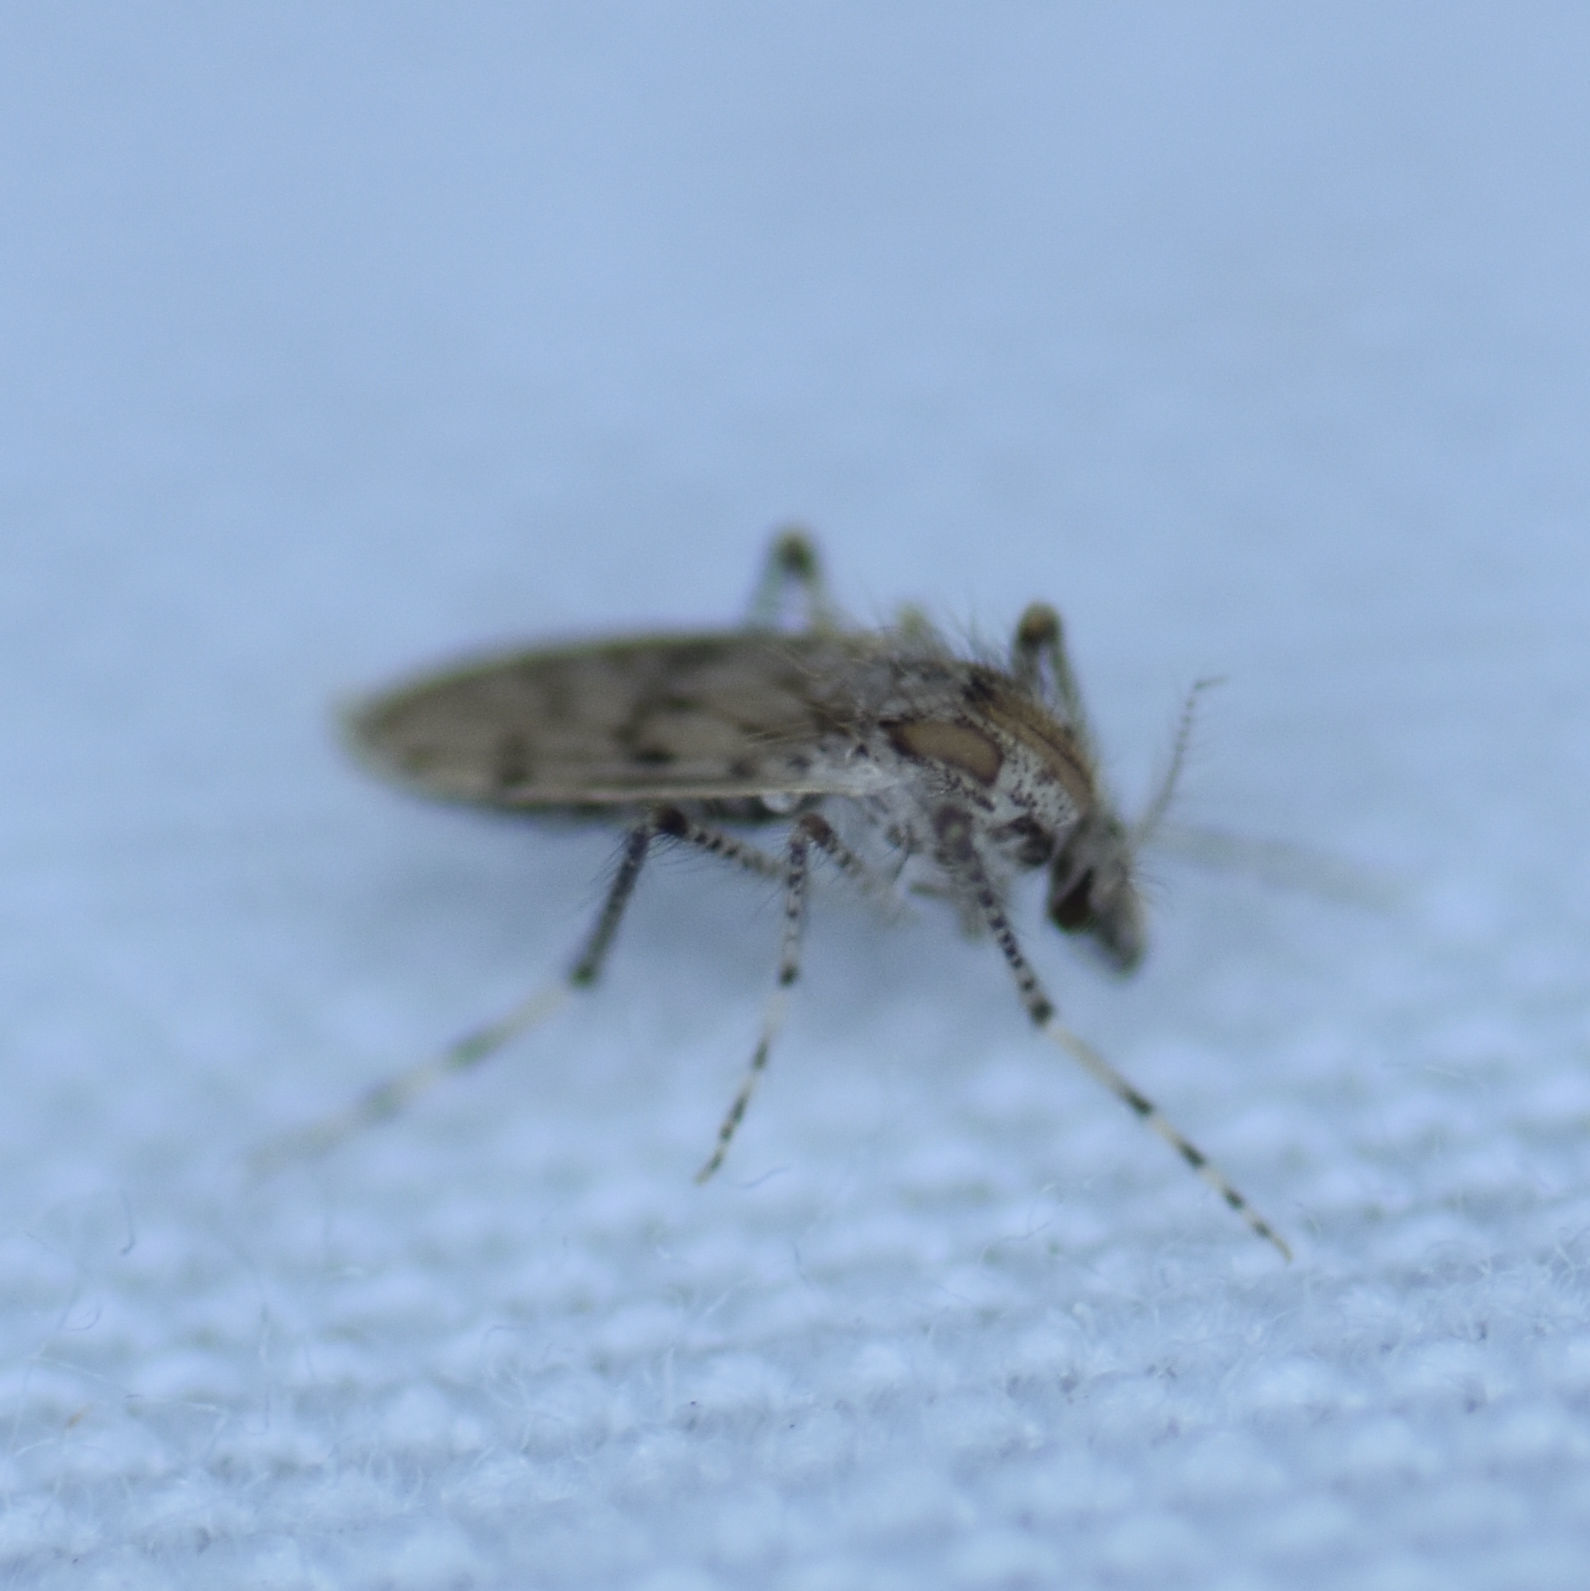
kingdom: Animalia
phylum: Arthropoda
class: Insecta
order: Diptera
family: Chaoboridae
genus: Chaoborus
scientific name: Chaoborus punctipennis
